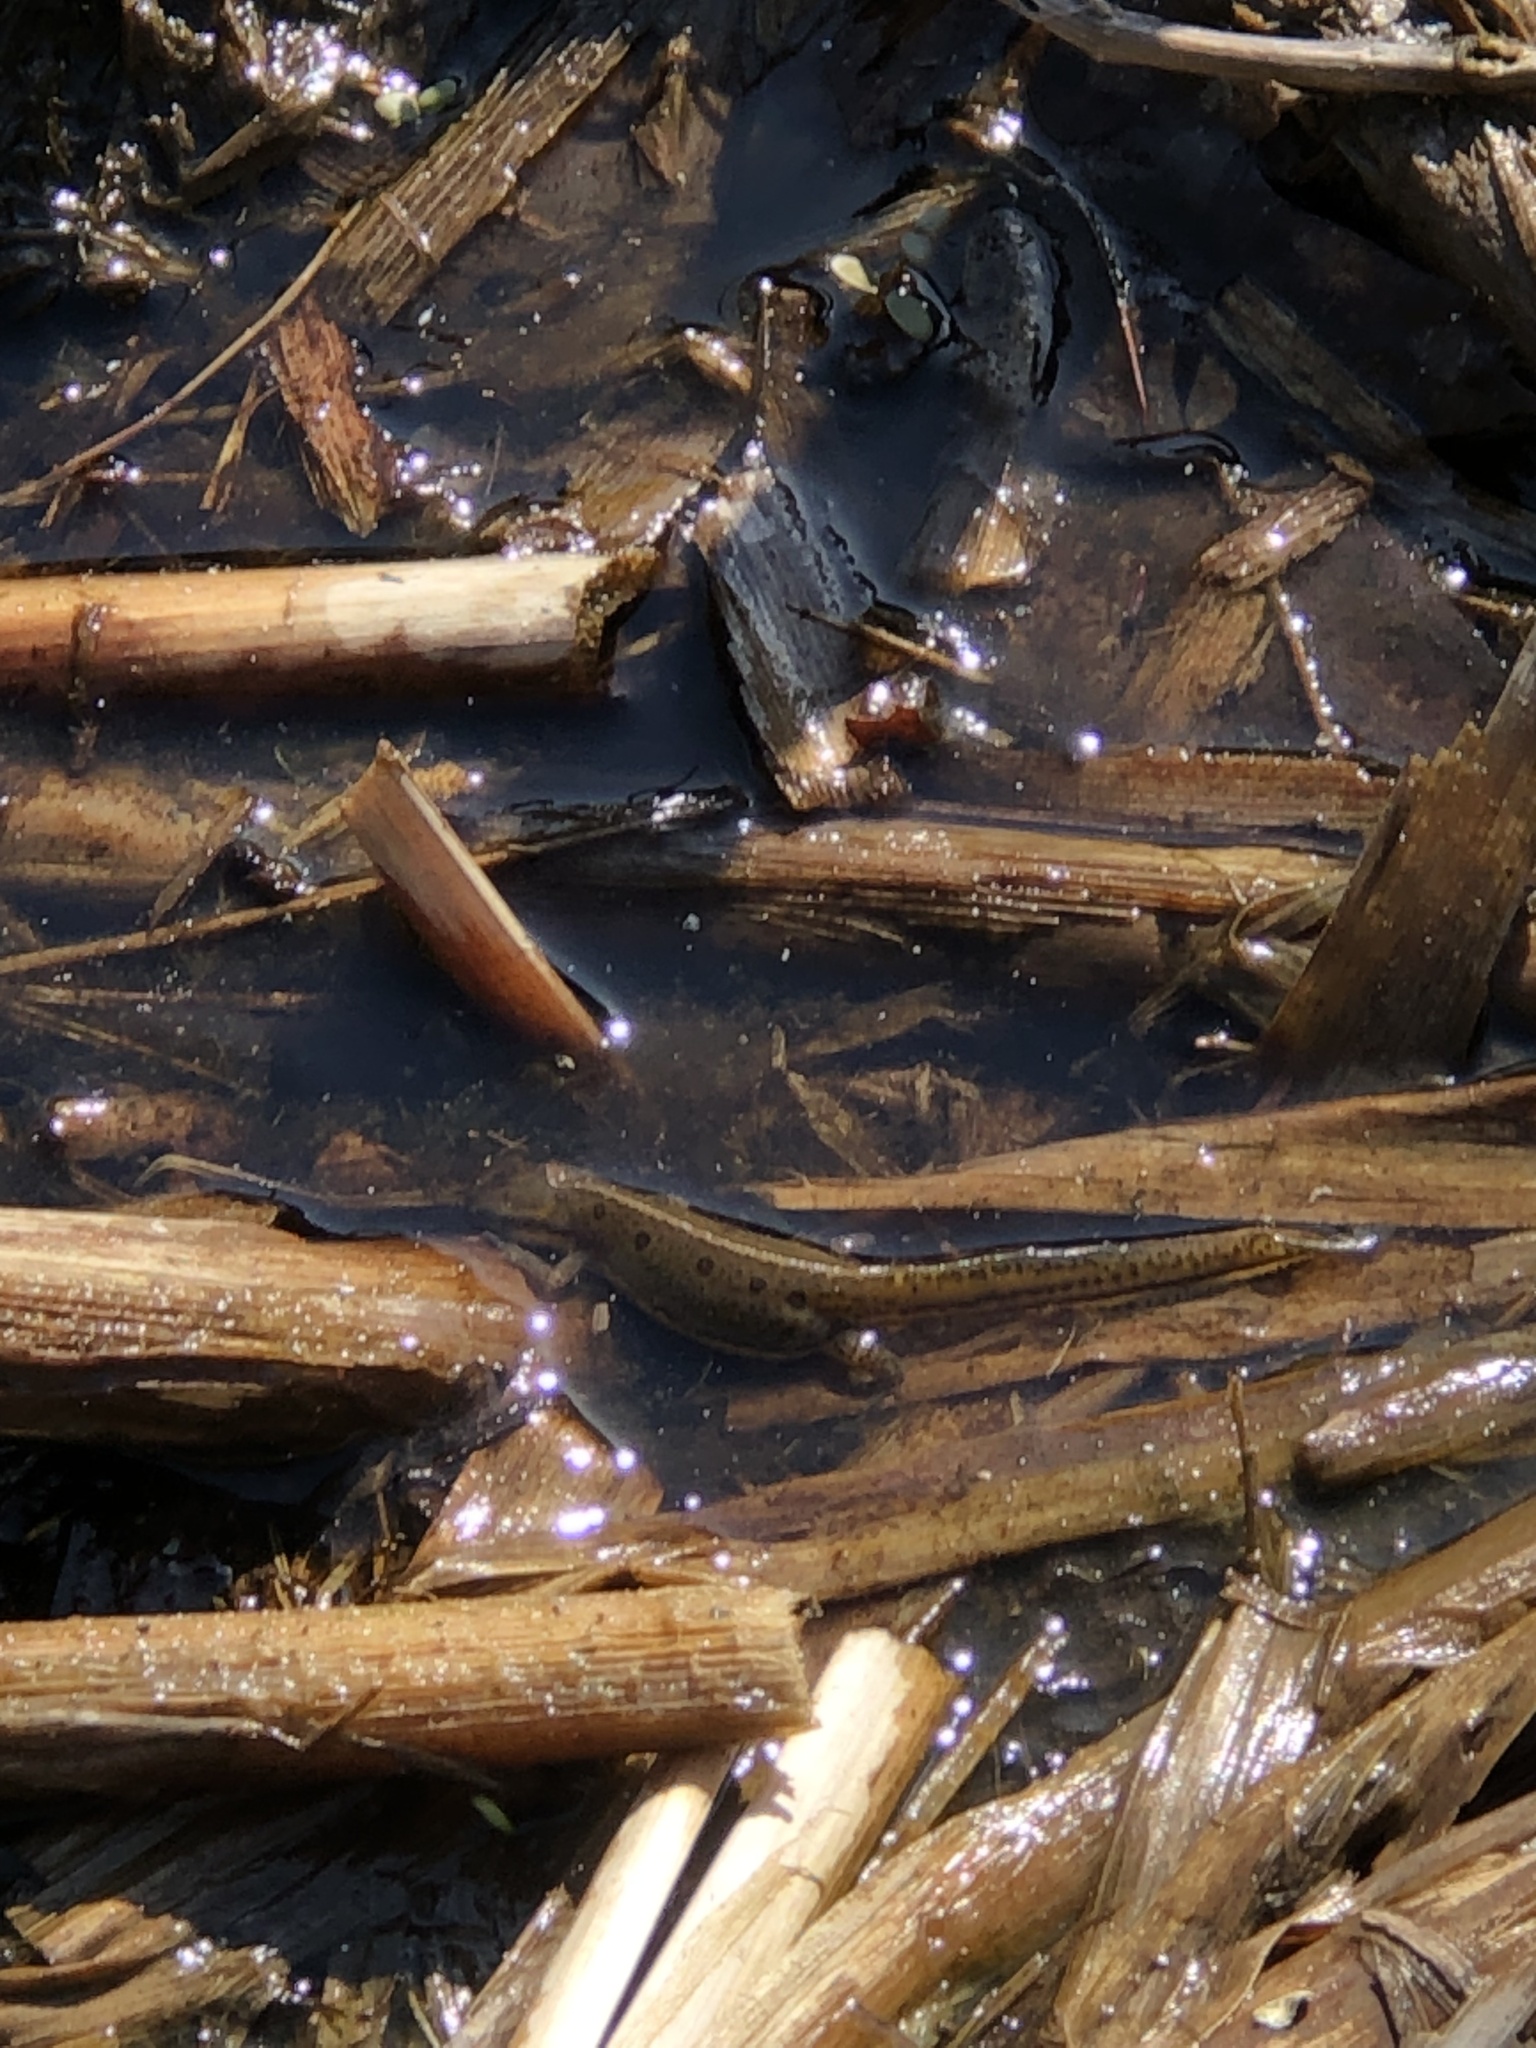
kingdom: Animalia
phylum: Chordata
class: Amphibia
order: Caudata
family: Salamandridae
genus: Notophthalmus
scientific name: Notophthalmus viridescens
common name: Eastern newt
